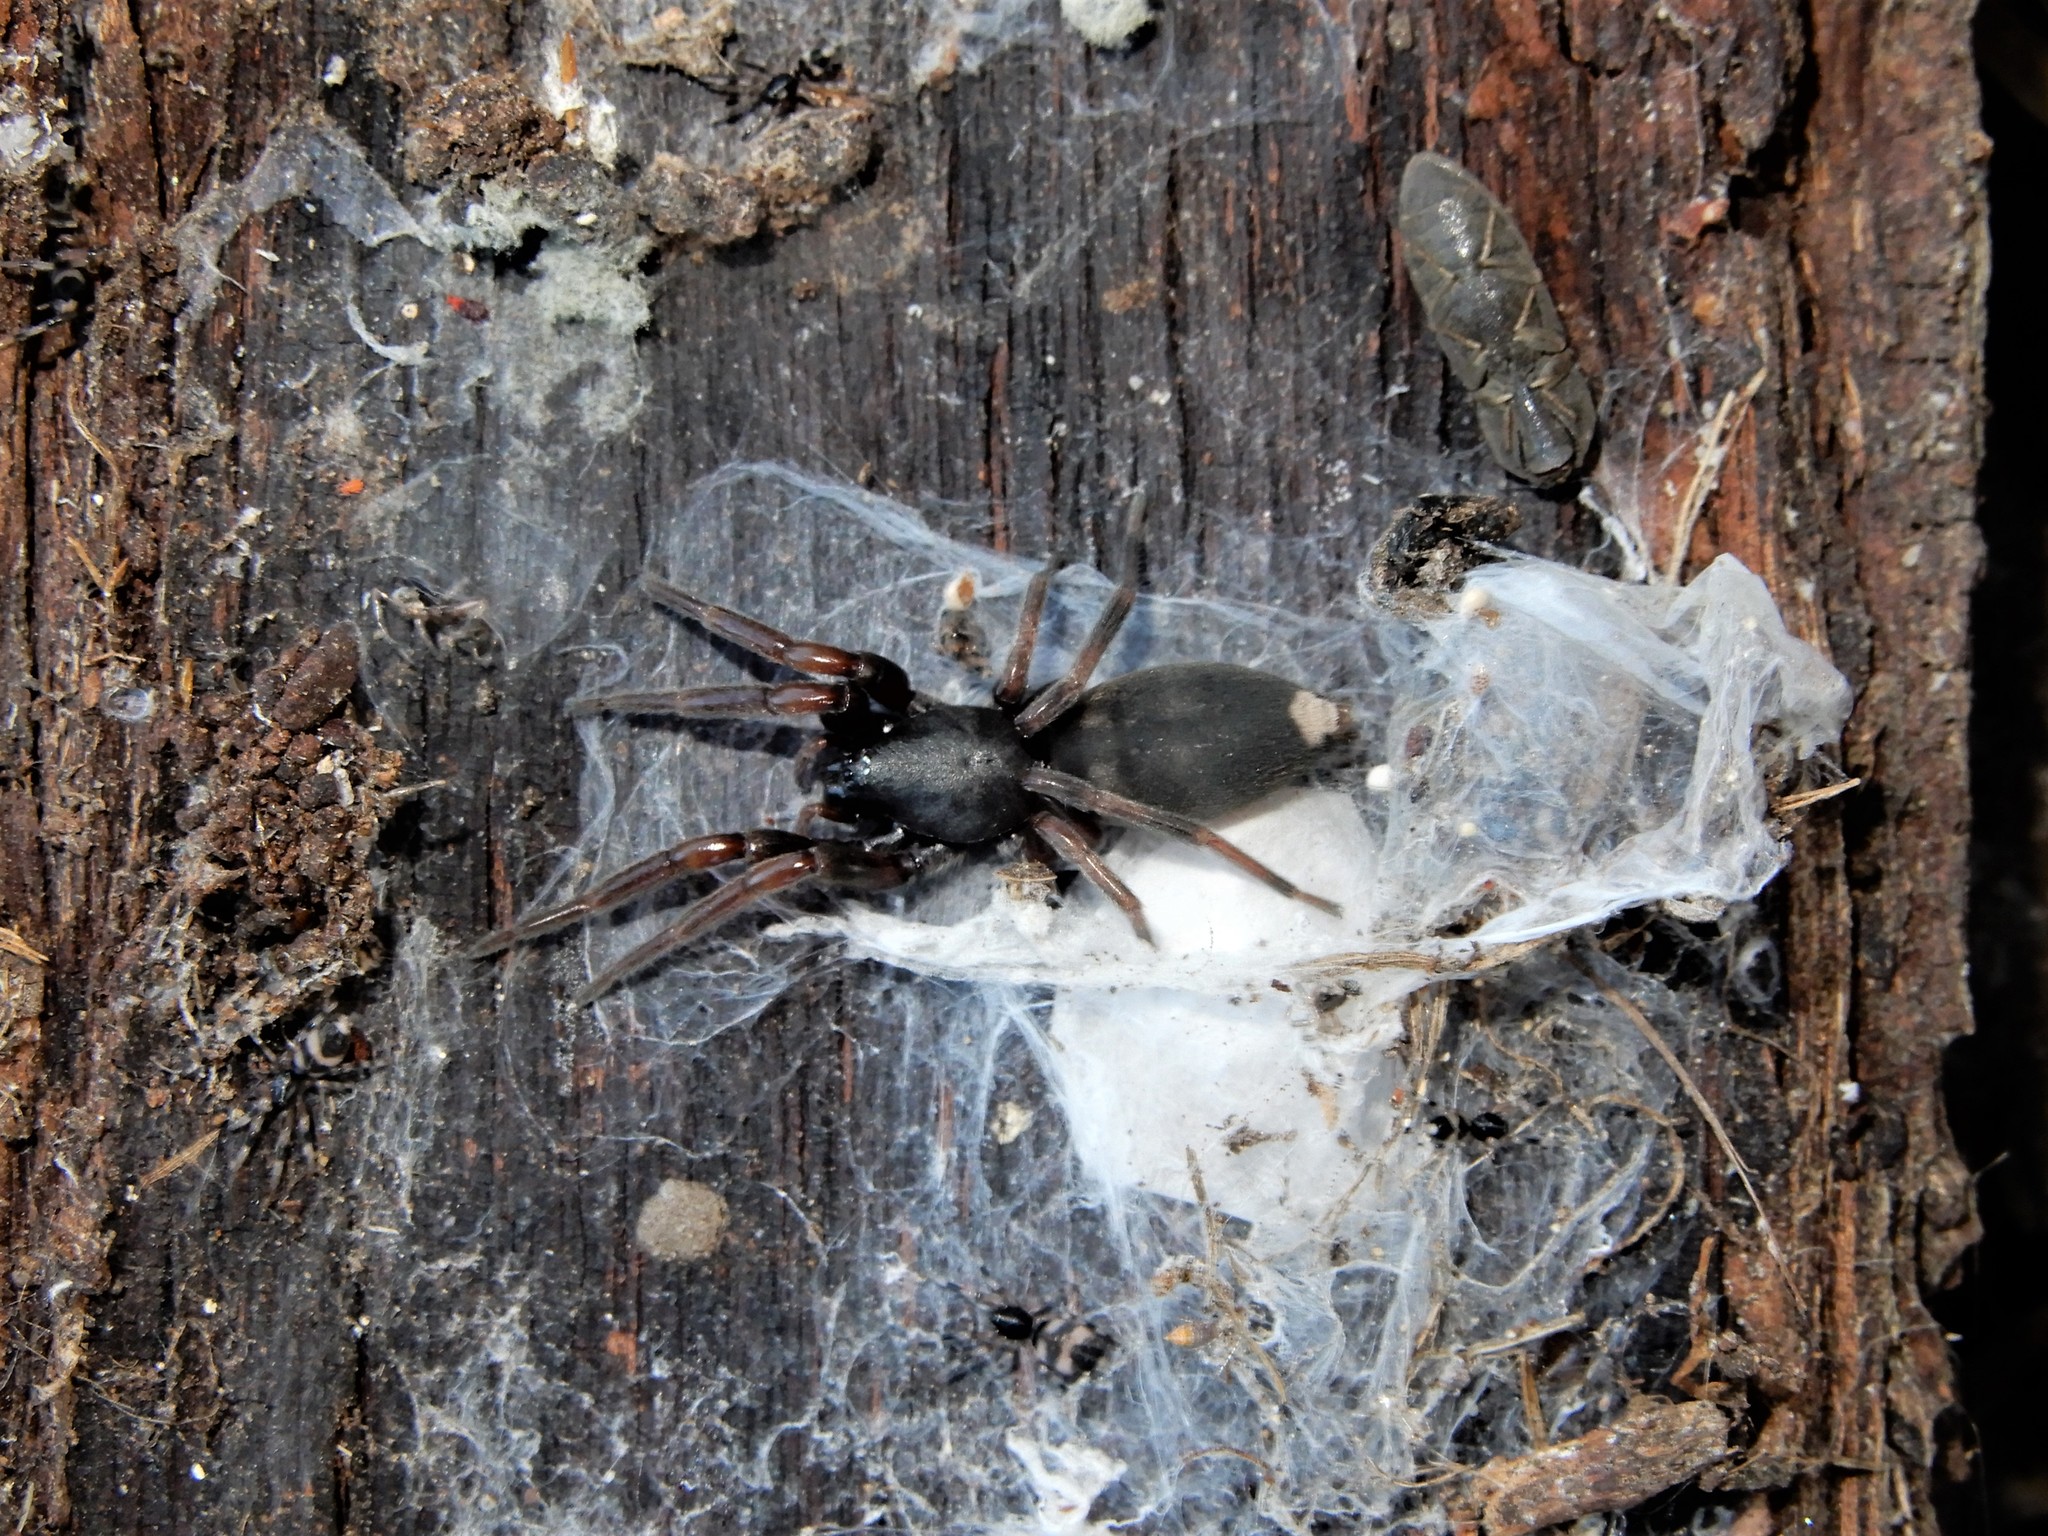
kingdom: Animalia
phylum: Arthropoda
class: Arachnida
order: Araneae
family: Lamponidae
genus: Lampona
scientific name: Lampona murina
